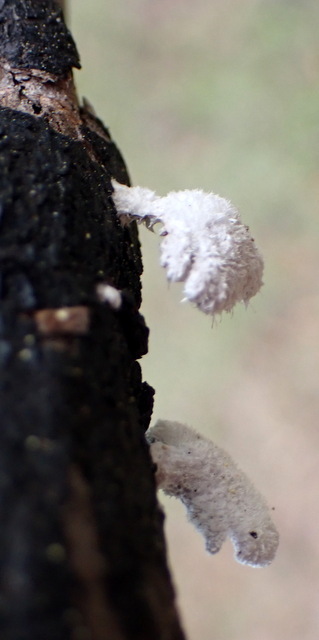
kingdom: Fungi
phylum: Basidiomycota
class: Agaricomycetes
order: Agaricales
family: Schizophyllaceae
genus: Schizophyllum
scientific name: Schizophyllum commune
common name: Common porecrust
